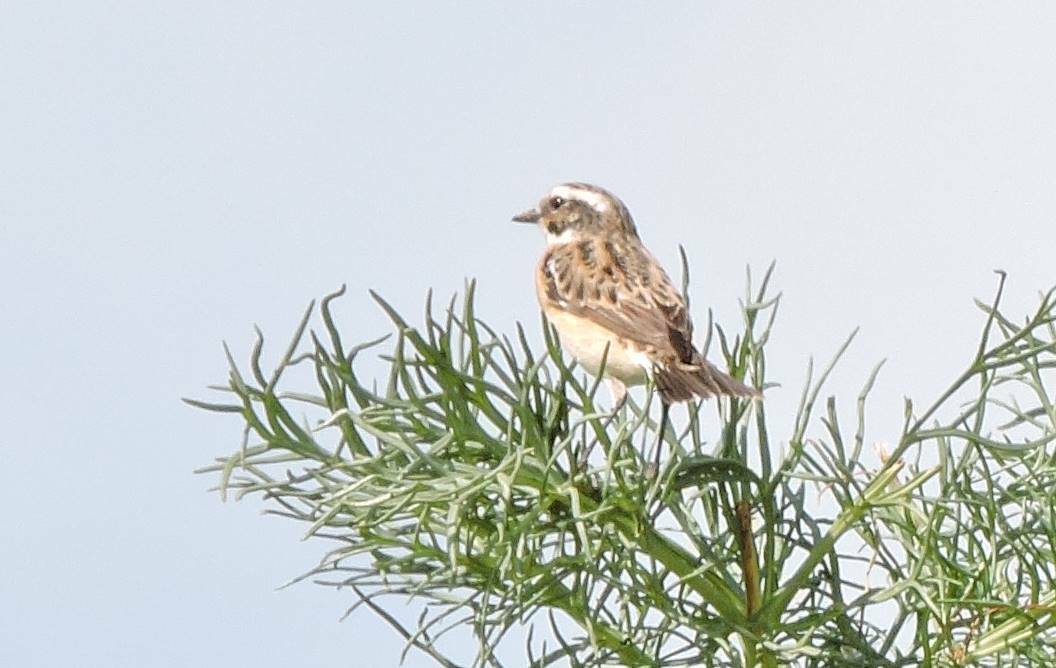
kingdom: Animalia
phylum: Chordata
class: Aves
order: Passeriformes
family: Muscicapidae
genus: Saxicola
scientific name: Saxicola rubetra
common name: Whinchat
